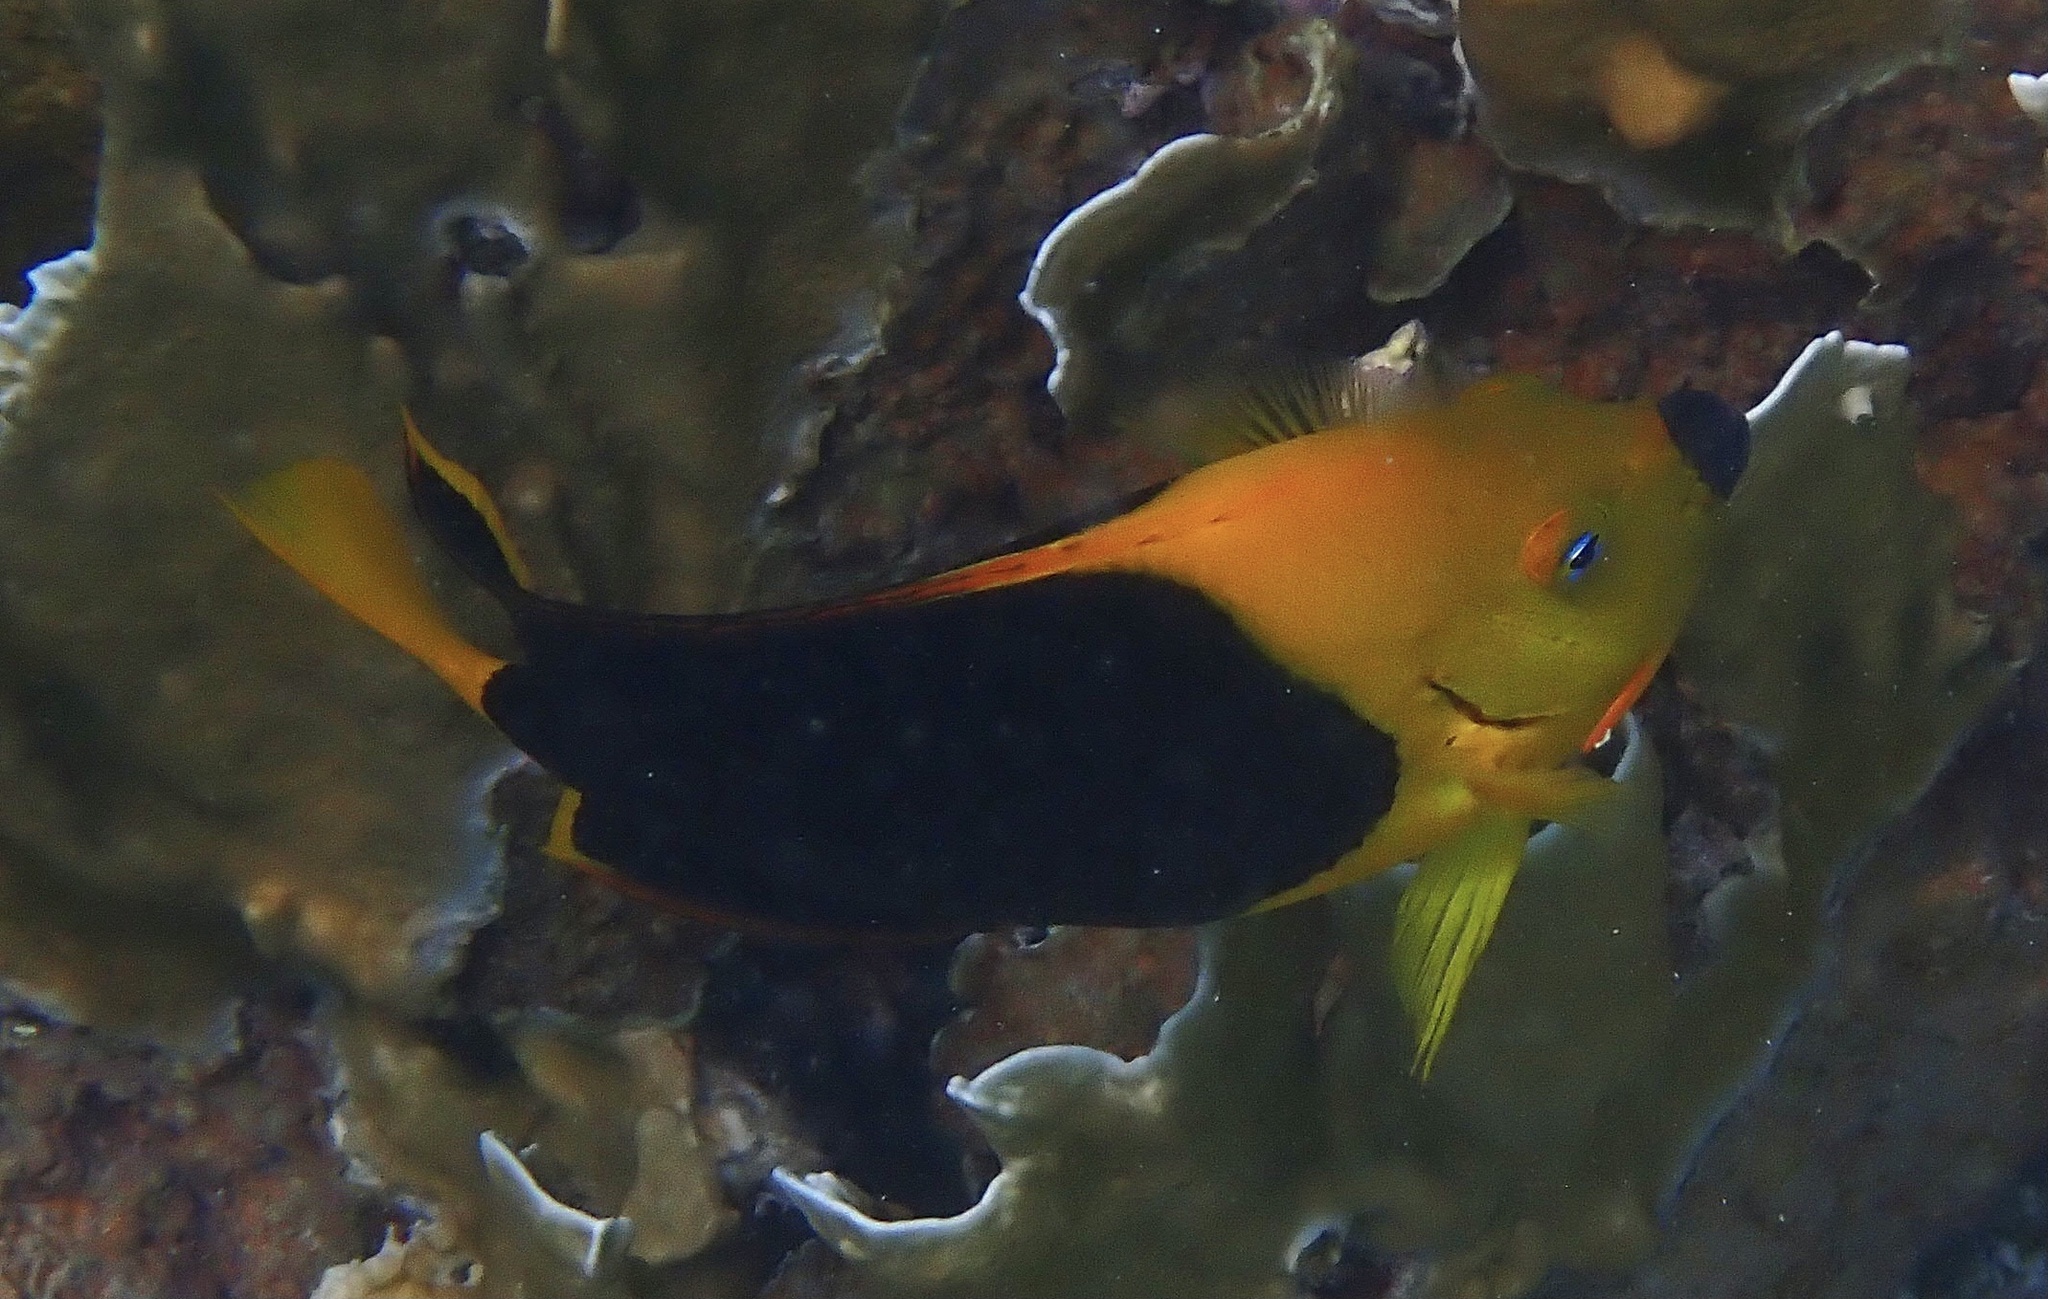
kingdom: Animalia
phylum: Chordata
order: Perciformes
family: Pomacanthidae
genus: Holacanthus
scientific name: Holacanthus tricolor
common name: Rock beauty
